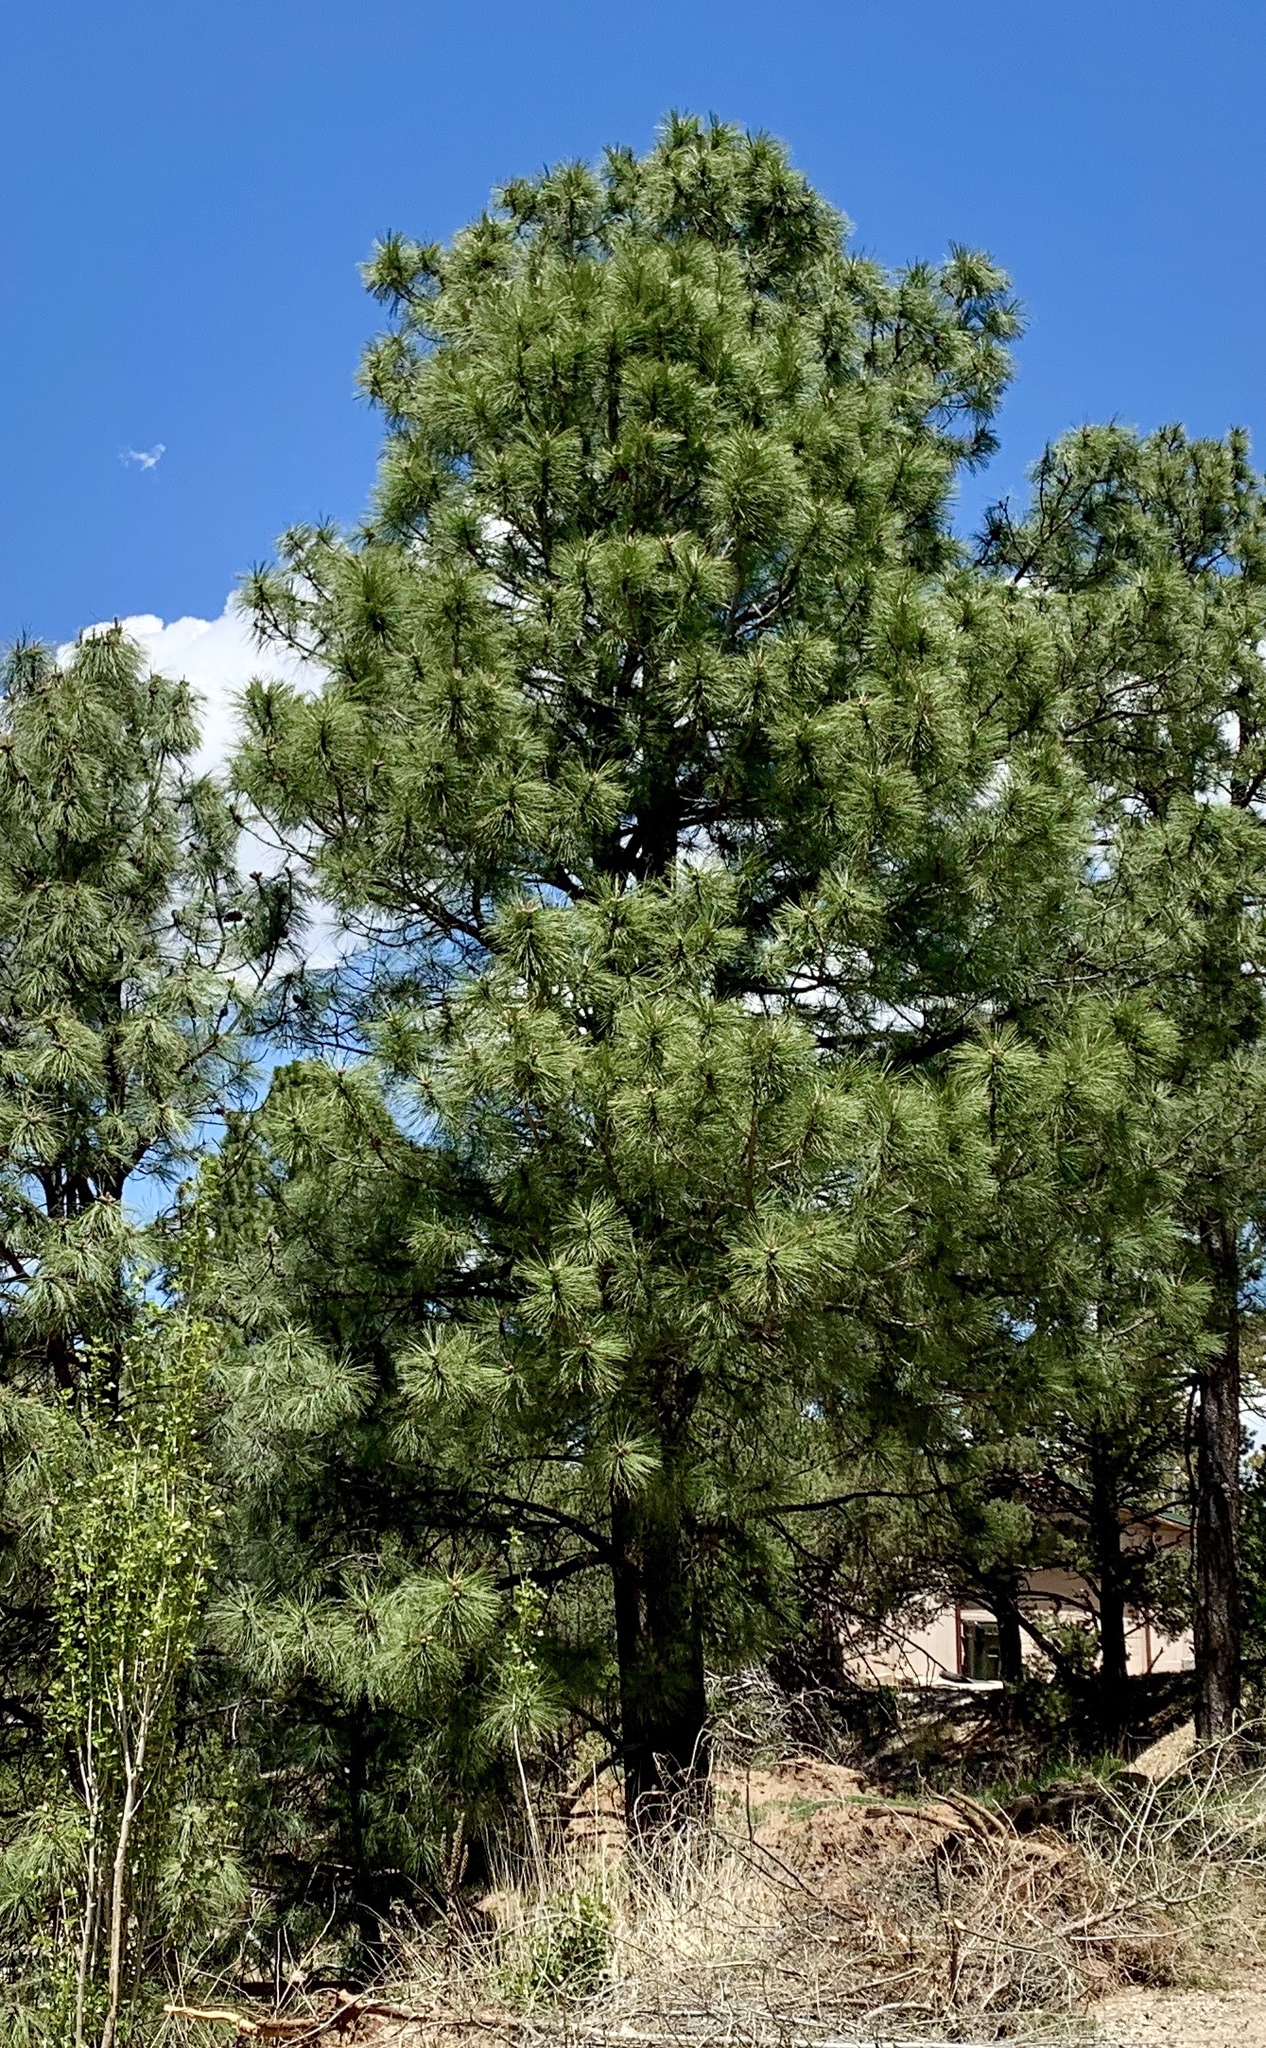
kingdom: Plantae
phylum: Tracheophyta
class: Pinopsida
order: Pinales
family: Pinaceae
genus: Pinus
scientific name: Pinus ponderosa
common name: Western yellow-pine
